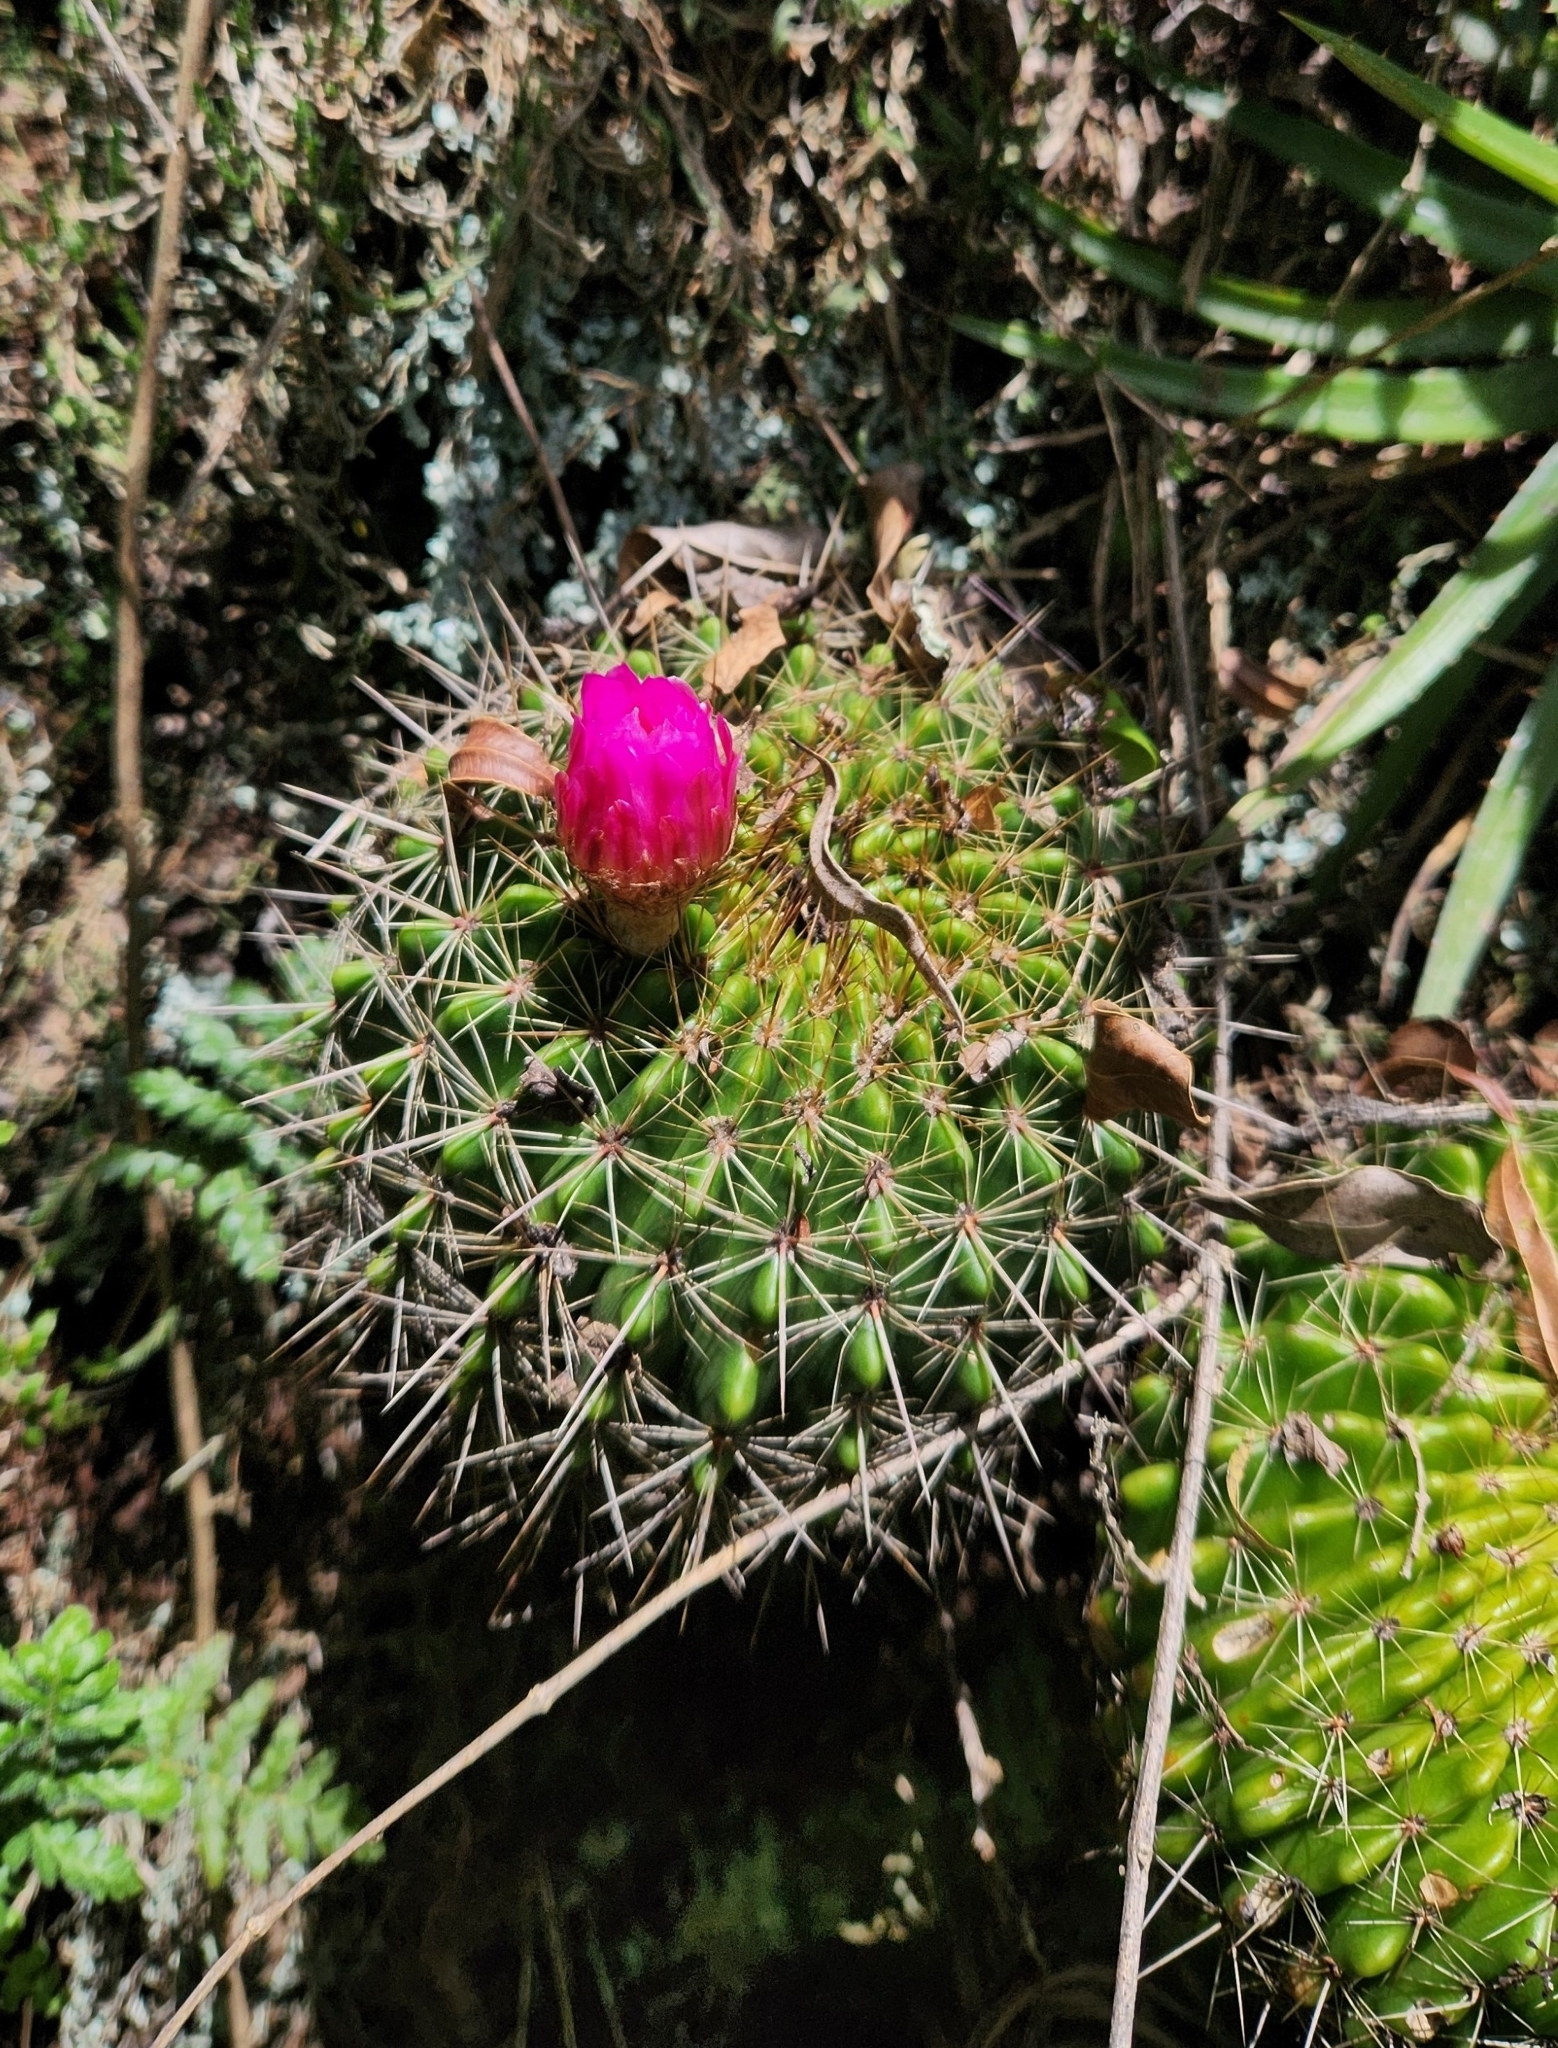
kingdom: Plantae
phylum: Tracheophyta
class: Magnoliopsida
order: Caryophyllales
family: Cactaceae
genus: Parodia
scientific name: Parodia herteri
